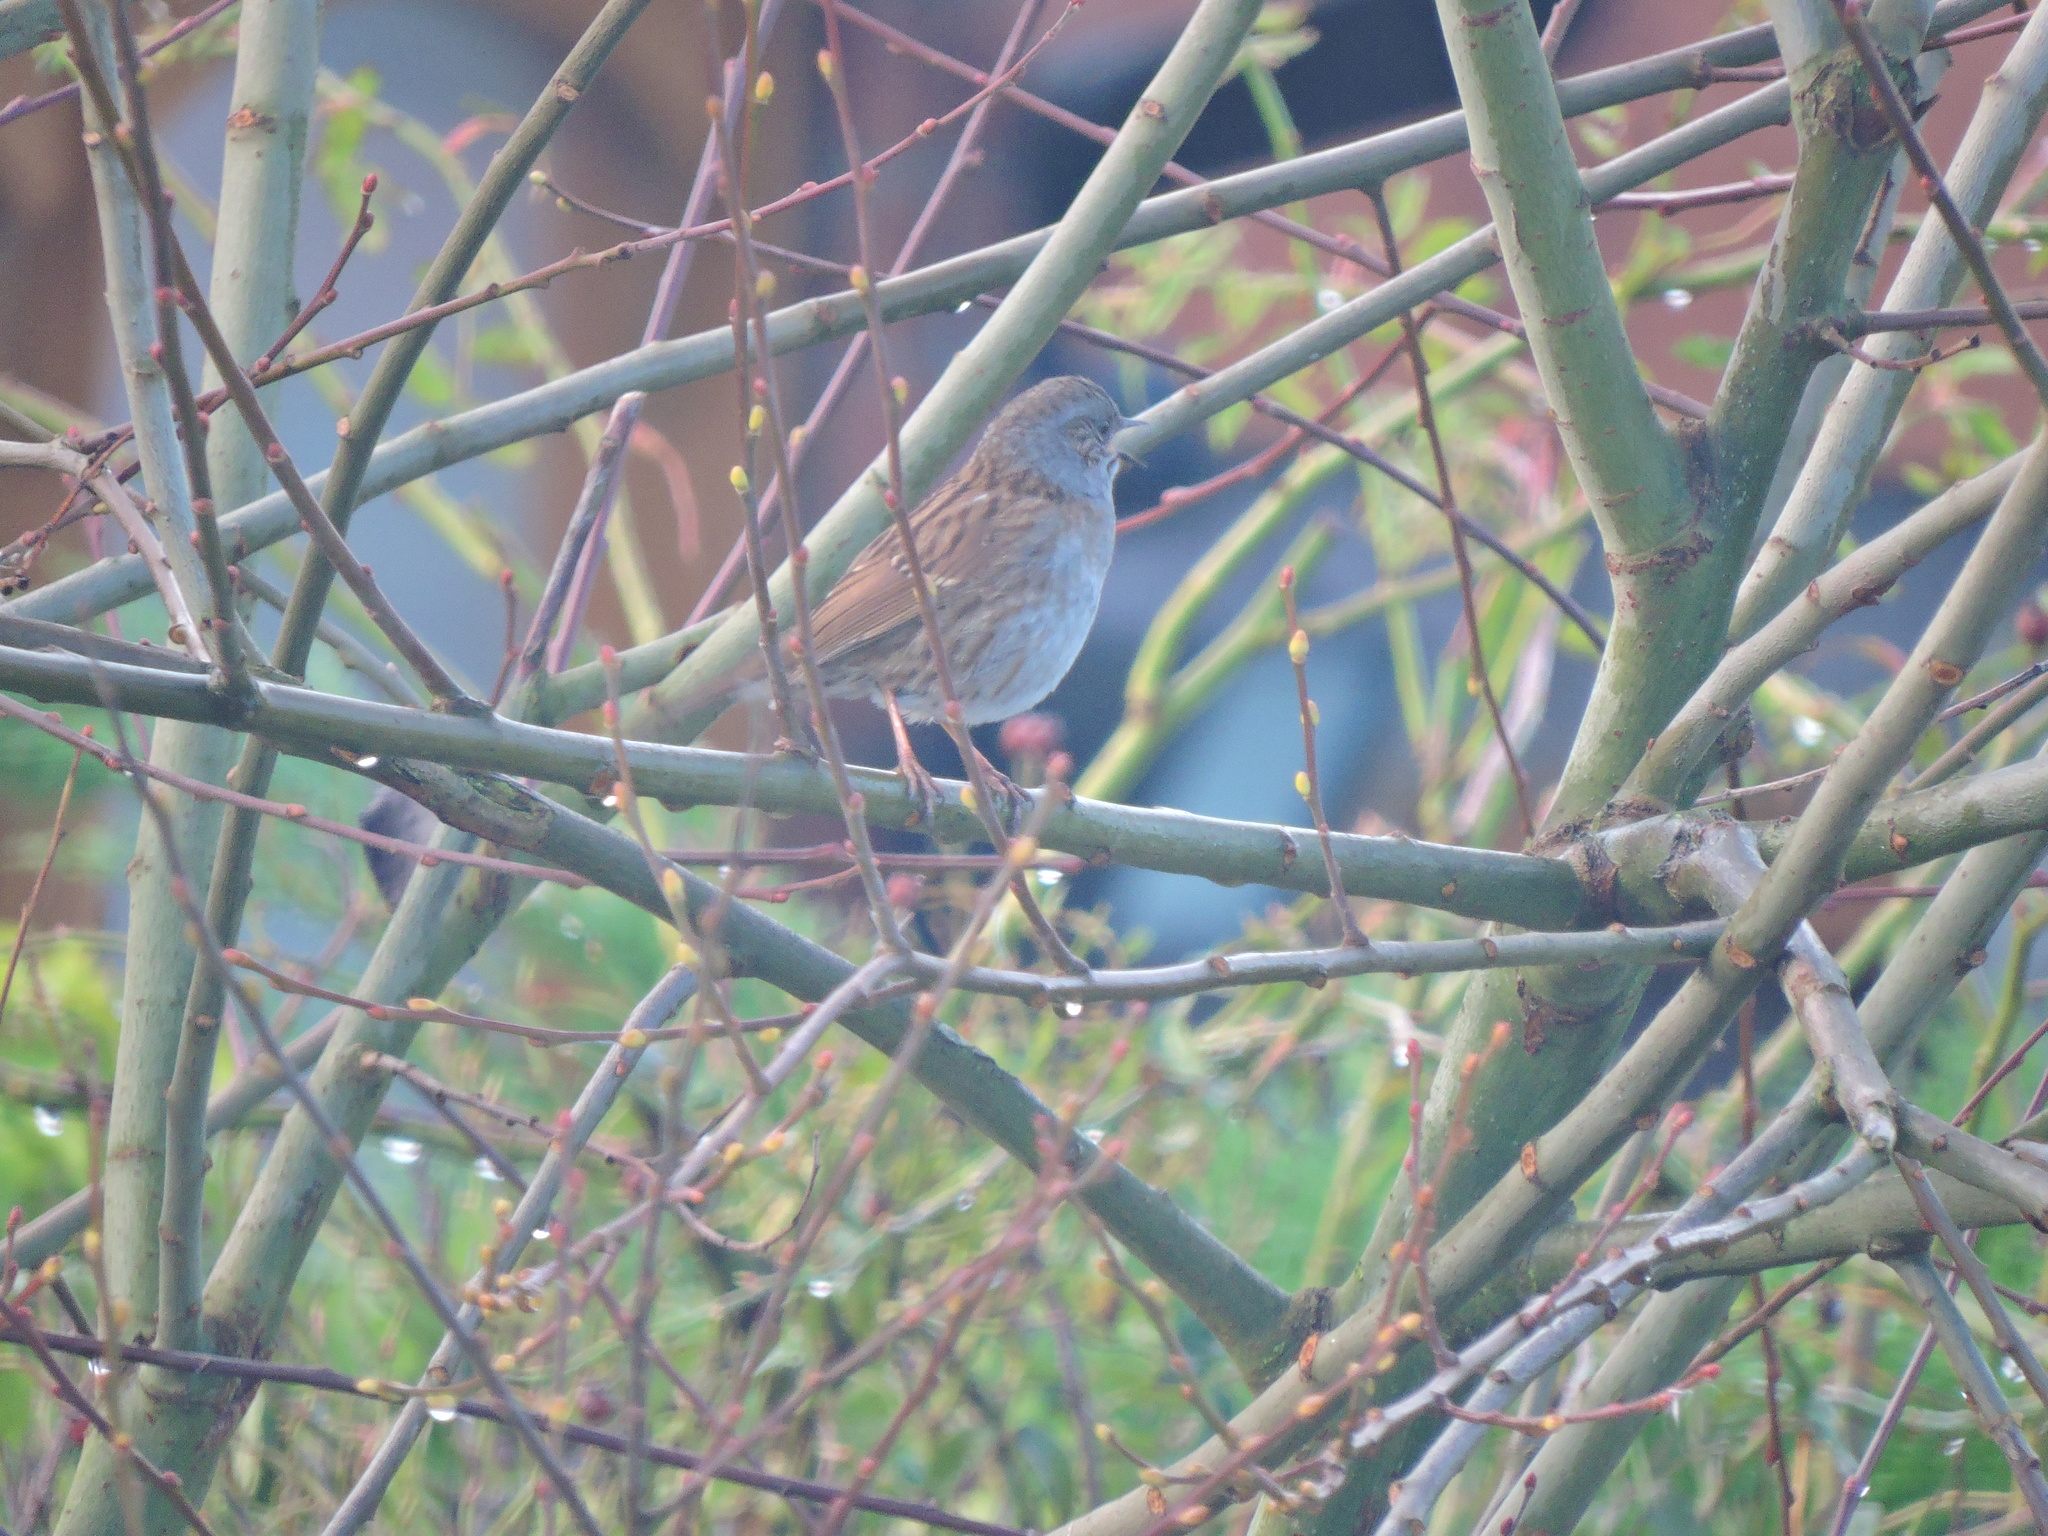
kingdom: Animalia
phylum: Chordata
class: Aves
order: Passeriformes
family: Prunellidae
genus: Prunella
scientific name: Prunella modularis
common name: Dunnock
